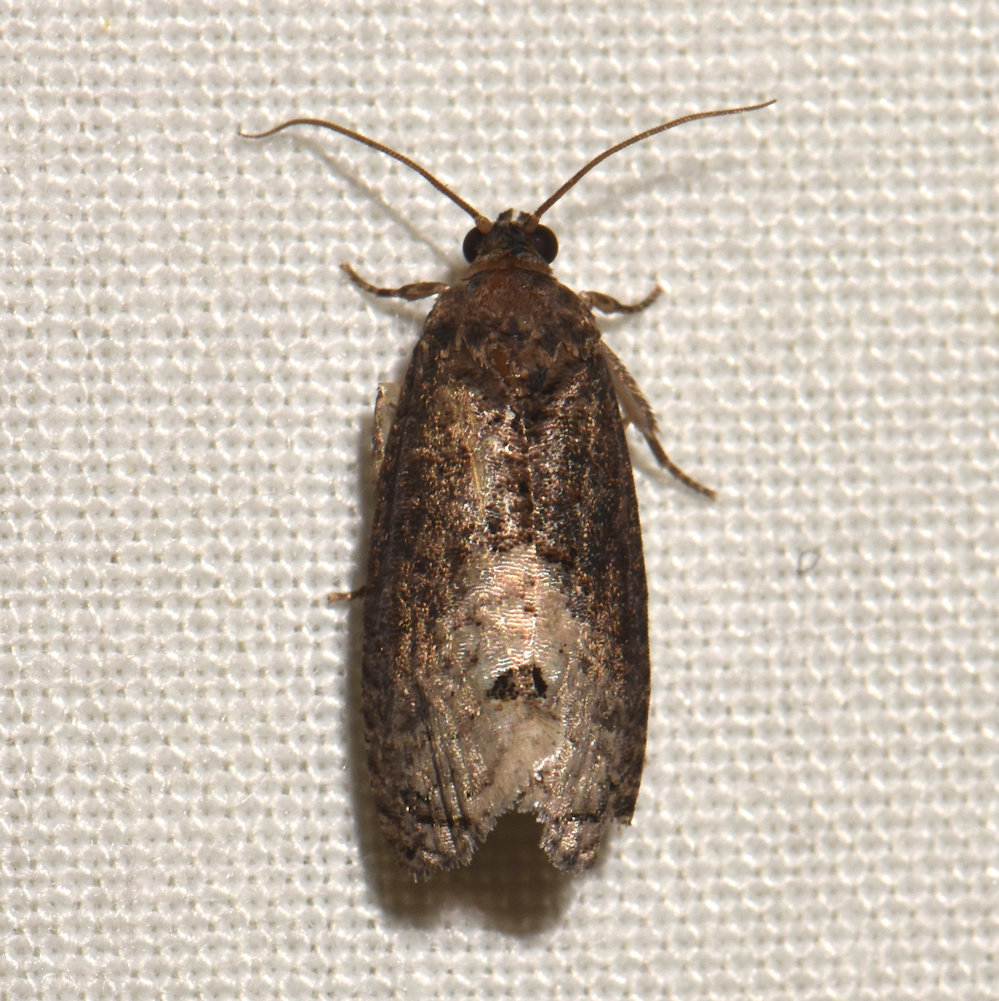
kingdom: Animalia
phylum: Arthropoda
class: Insecta
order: Lepidoptera
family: Tortricidae
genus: Ecdytolopha
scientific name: Ecdytolopha insiticiana
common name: Locust twig borer moth
